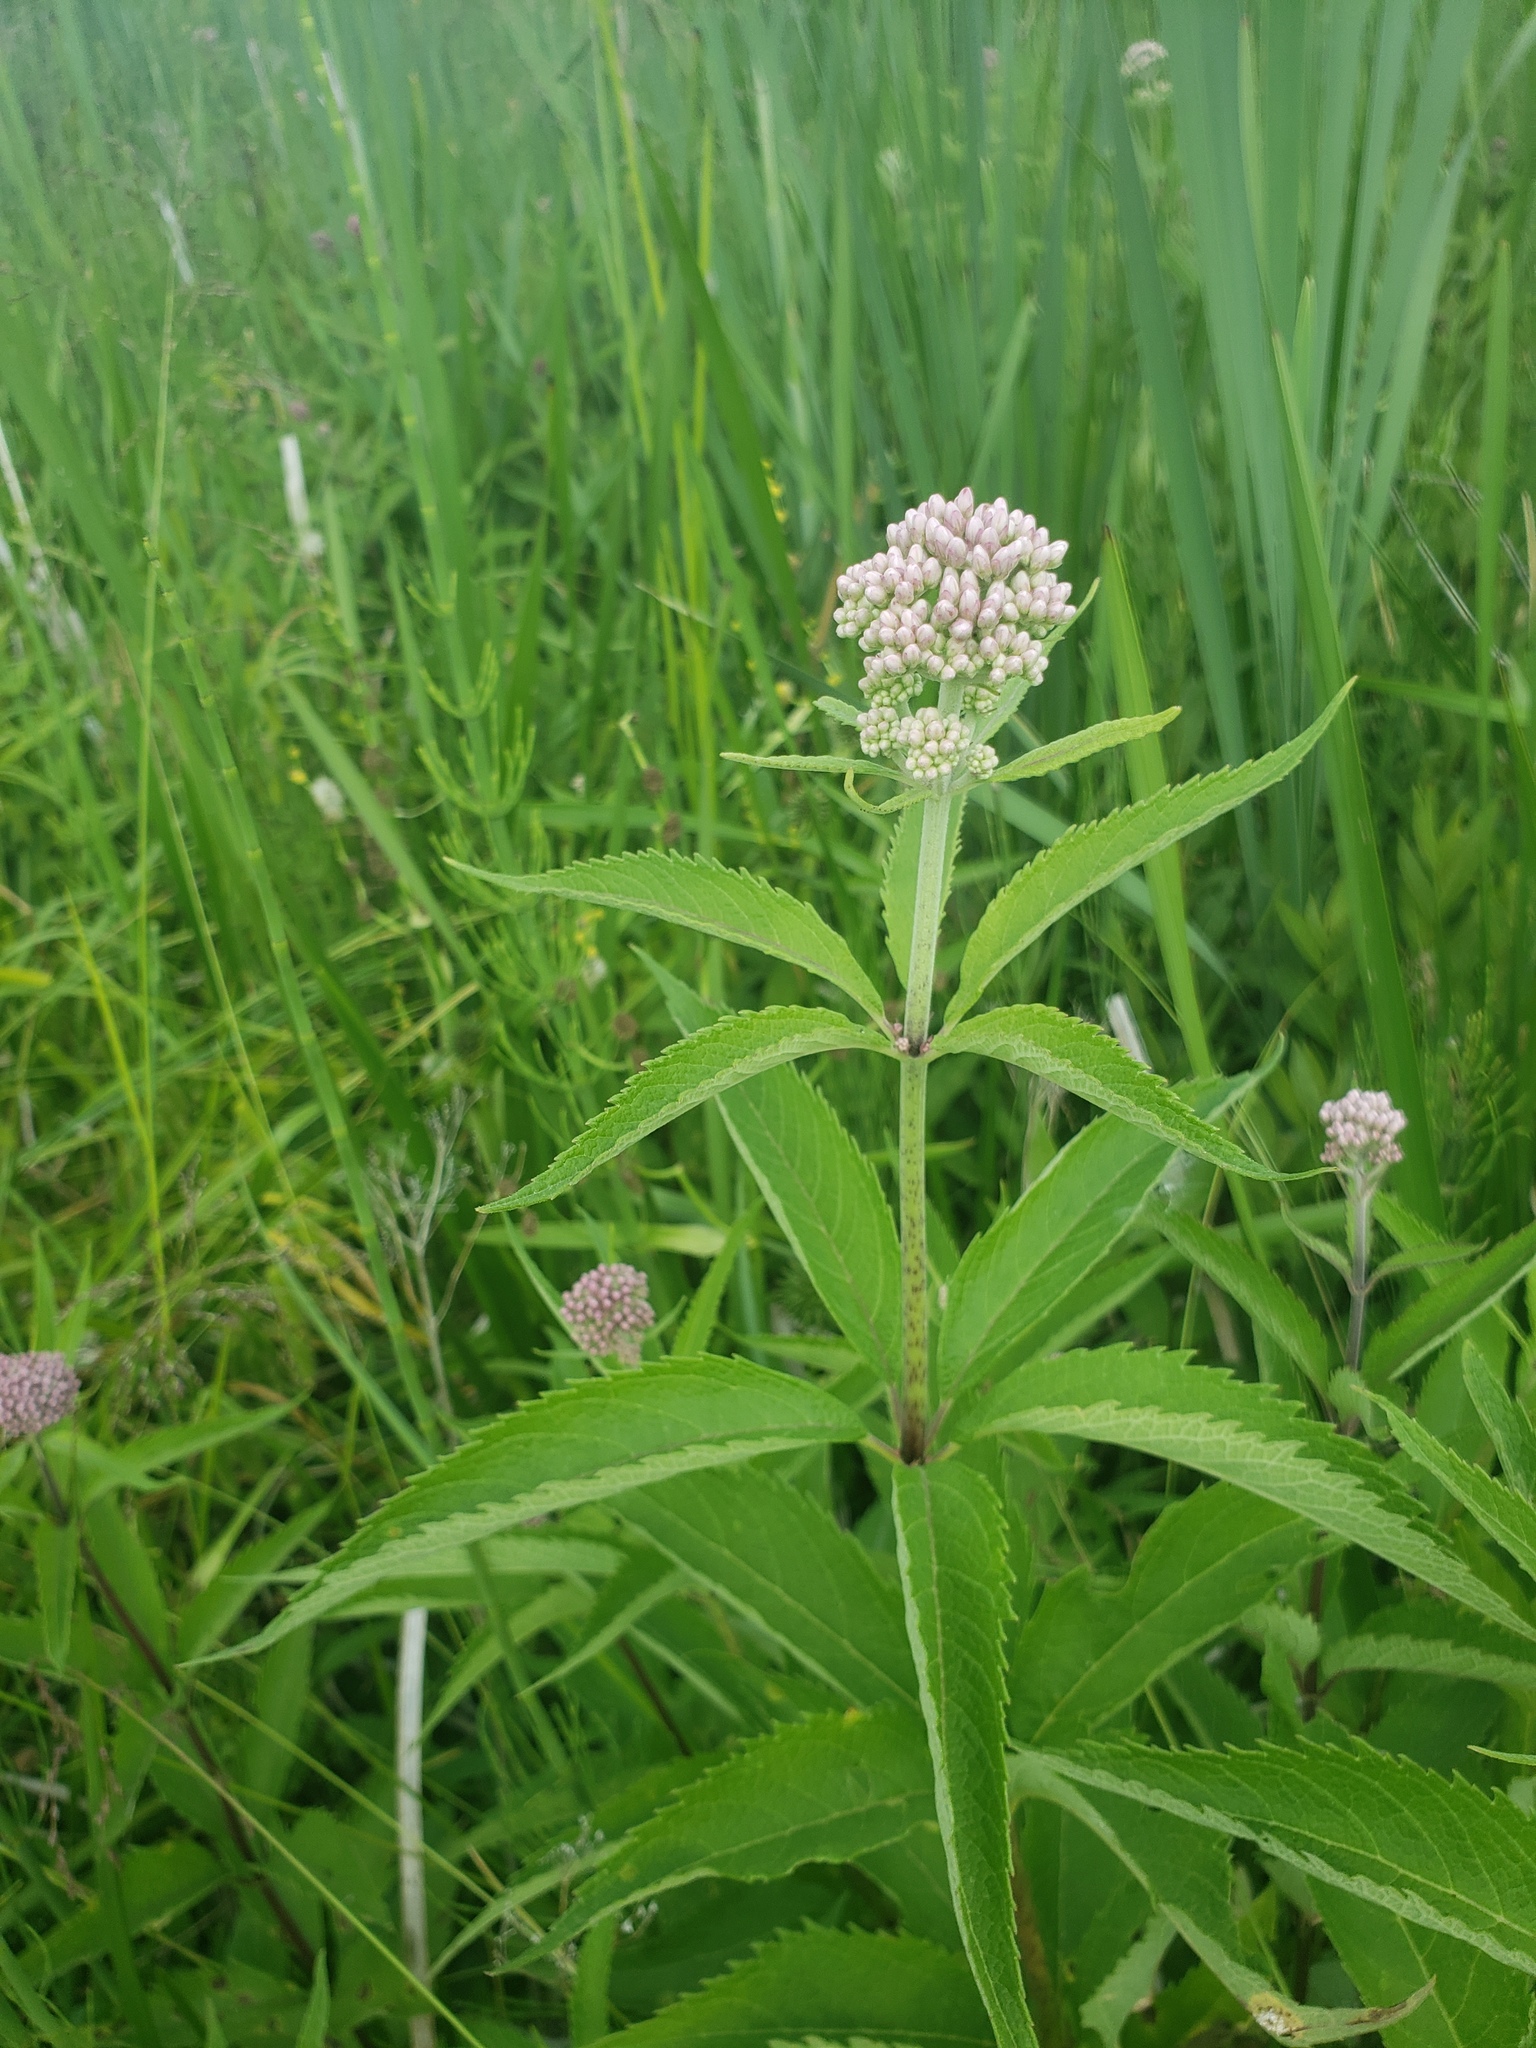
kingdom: Plantae
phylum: Tracheophyta
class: Magnoliopsida
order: Asterales
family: Asteraceae
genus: Eutrochium
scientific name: Eutrochium maculatum
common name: Spotted joe pye weed
